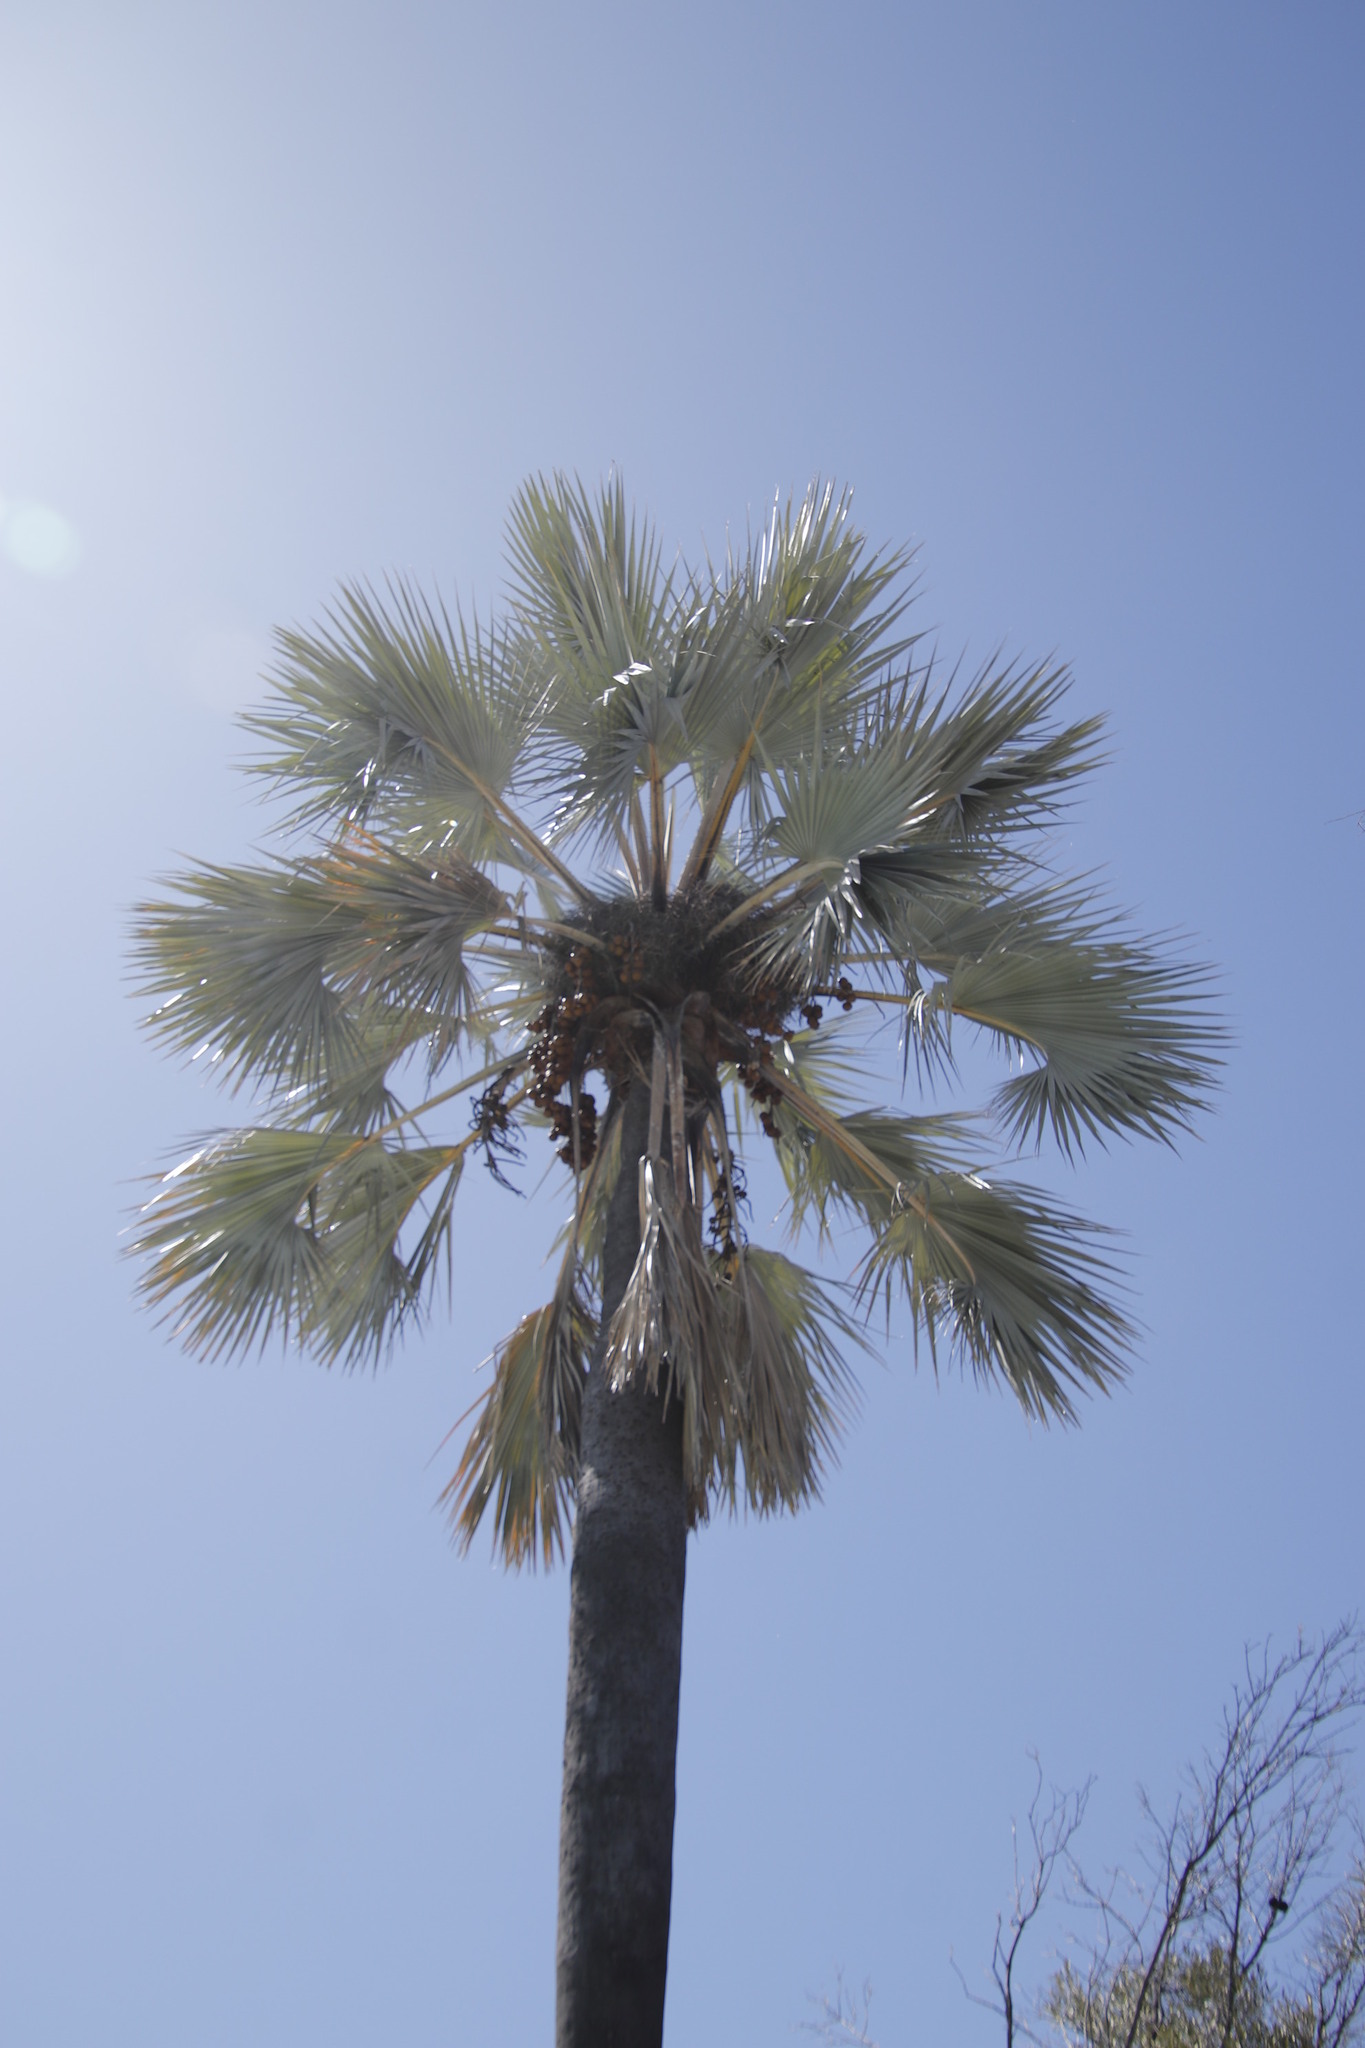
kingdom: Plantae
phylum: Tracheophyta
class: Liliopsida
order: Arecales
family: Arecaceae
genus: Hyphaene
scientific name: Hyphaene petersiana
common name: African ivory nut palm
